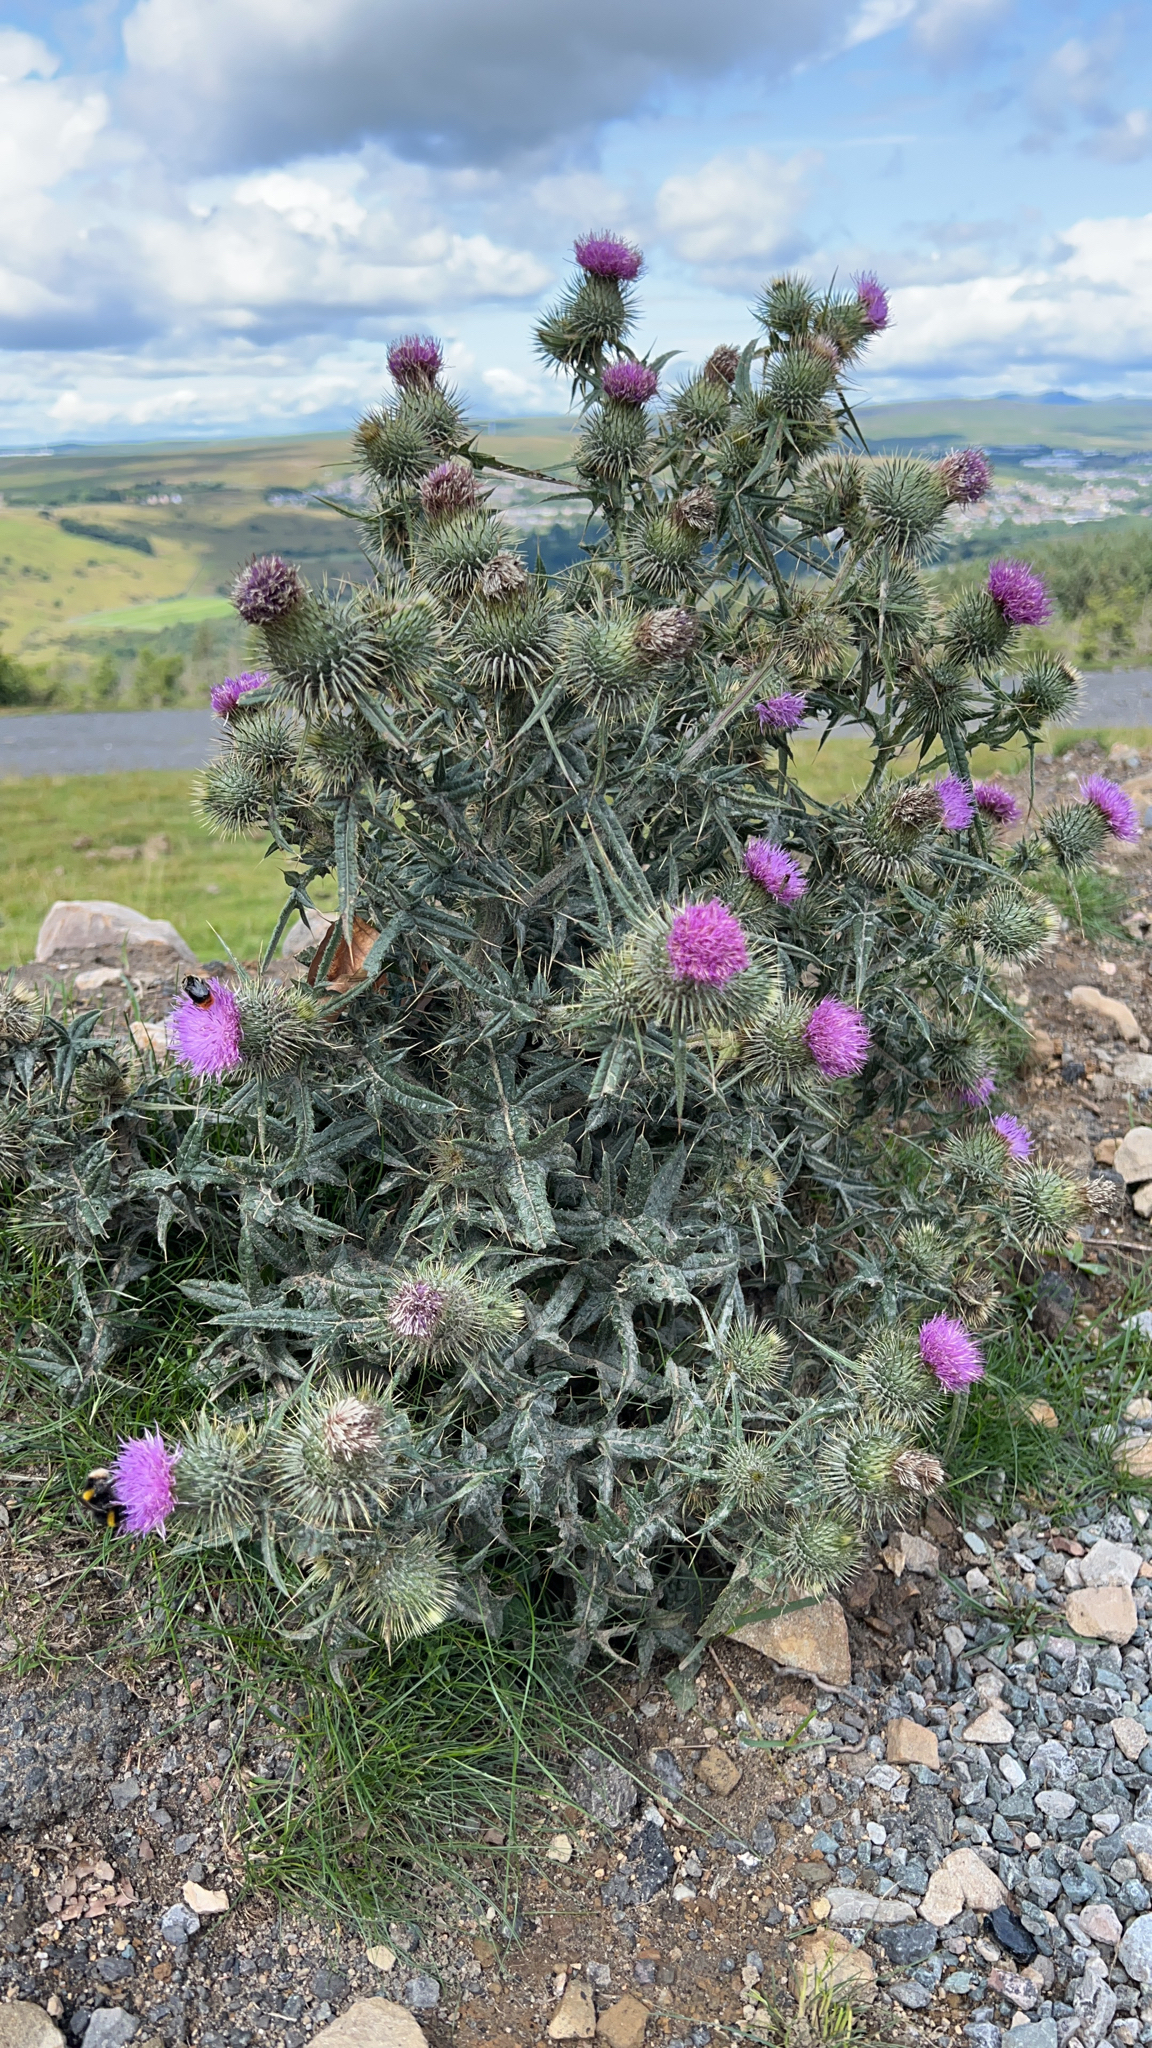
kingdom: Plantae
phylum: Tracheophyta
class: Magnoliopsida
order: Asterales
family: Asteraceae
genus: Cirsium
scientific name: Cirsium vulgare
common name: Bull thistle
